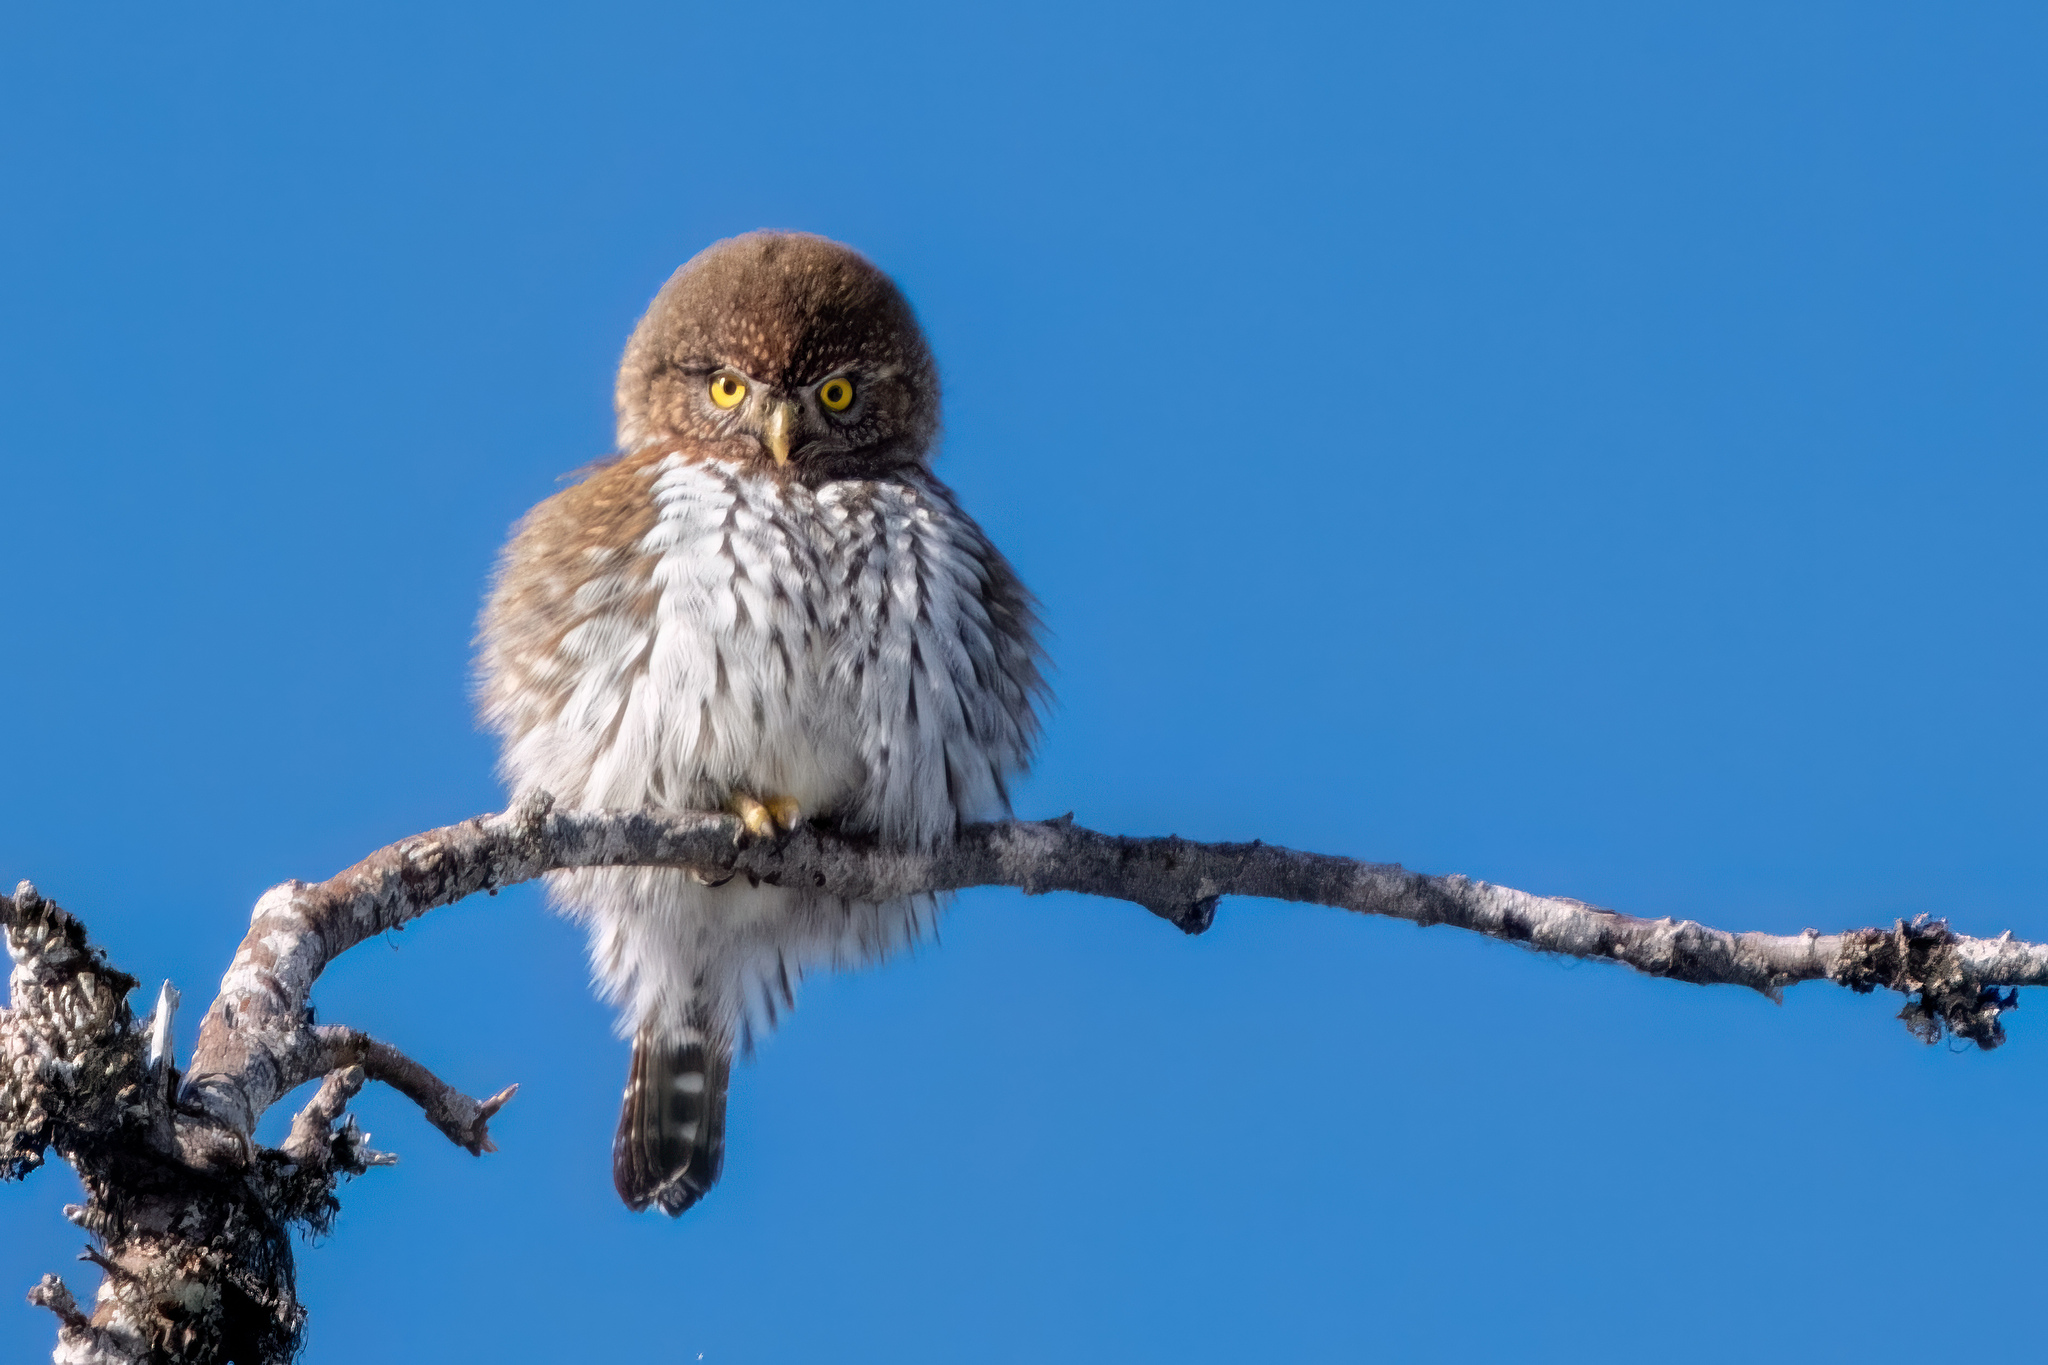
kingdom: Animalia
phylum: Chordata
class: Aves
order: Strigiformes
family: Strigidae
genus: Glaucidium
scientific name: Glaucidium gnoma
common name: Northern pygmy-owl
